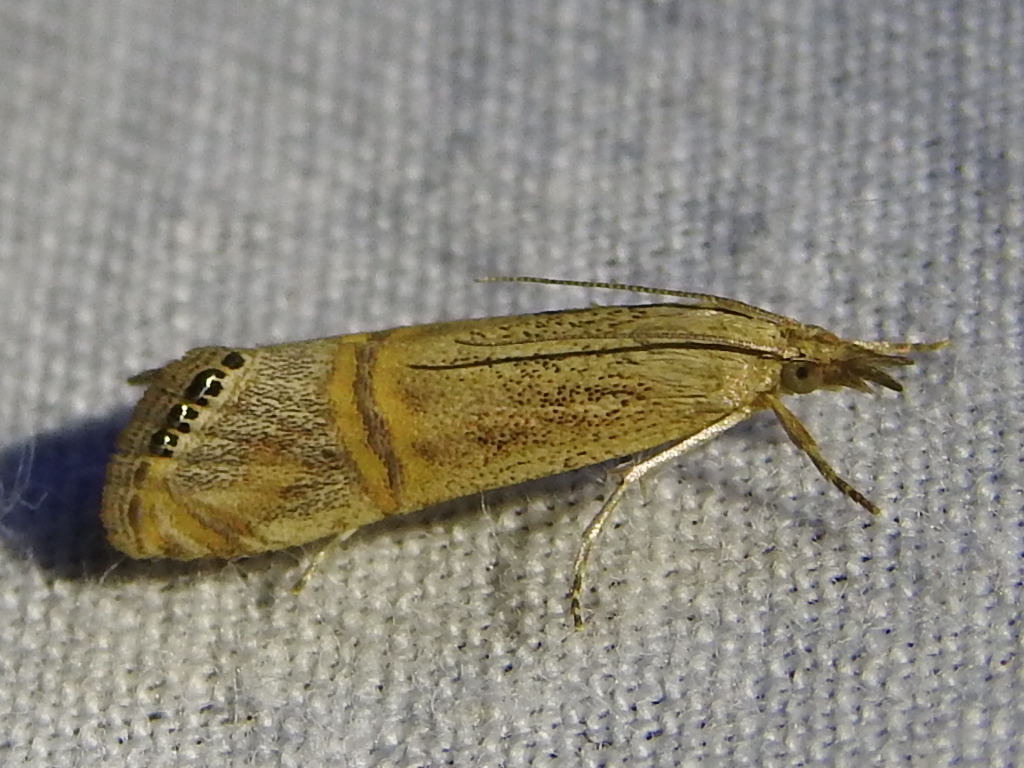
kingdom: Animalia
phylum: Arthropoda
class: Insecta
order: Lepidoptera
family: Crambidae
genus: Euchromius
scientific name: Euchromius ocellea
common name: Necklace veneer moth
